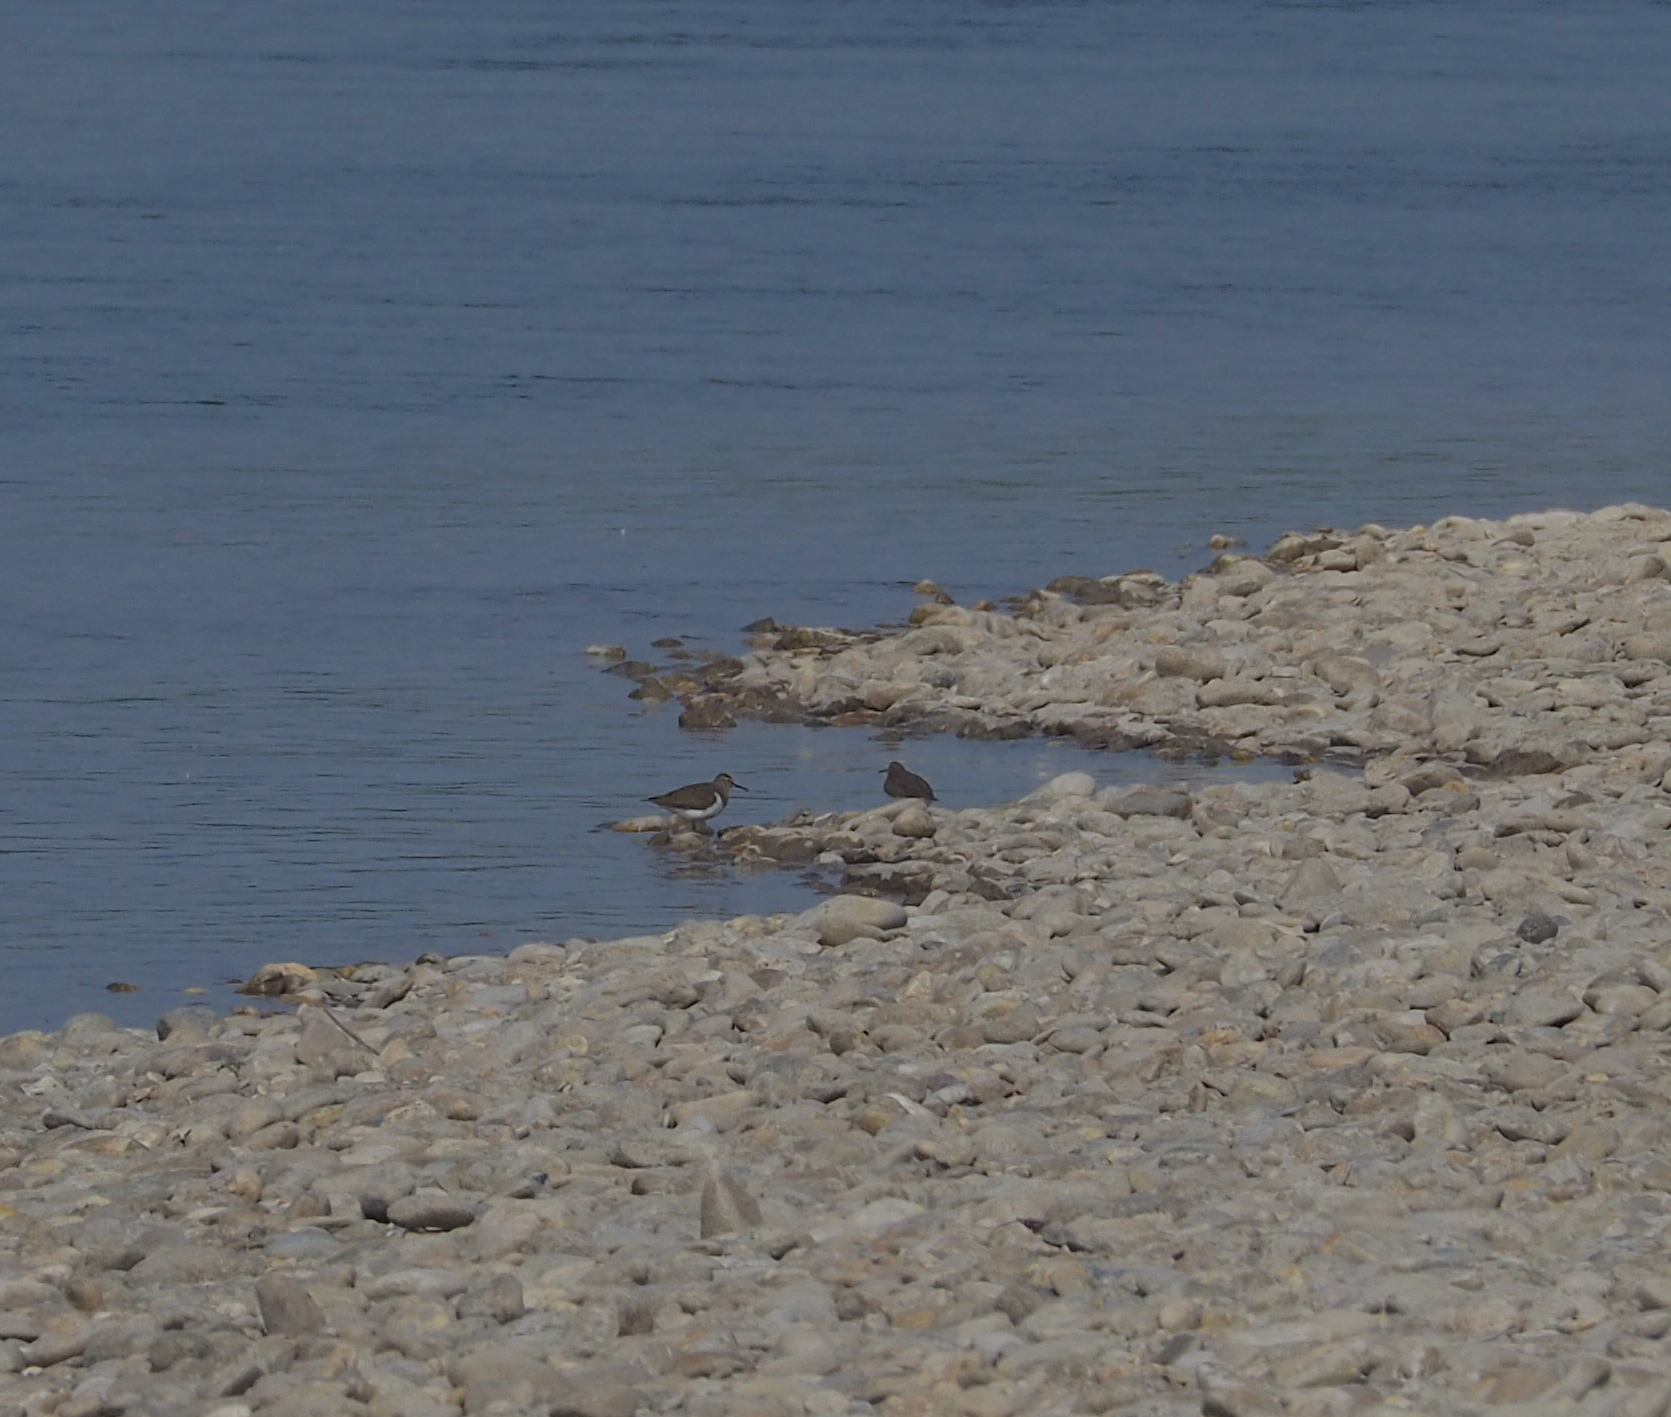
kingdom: Animalia
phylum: Chordata
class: Aves
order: Charadriiformes
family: Scolopacidae
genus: Actitis
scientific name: Actitis hypoleucos
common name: Common sandpiper
